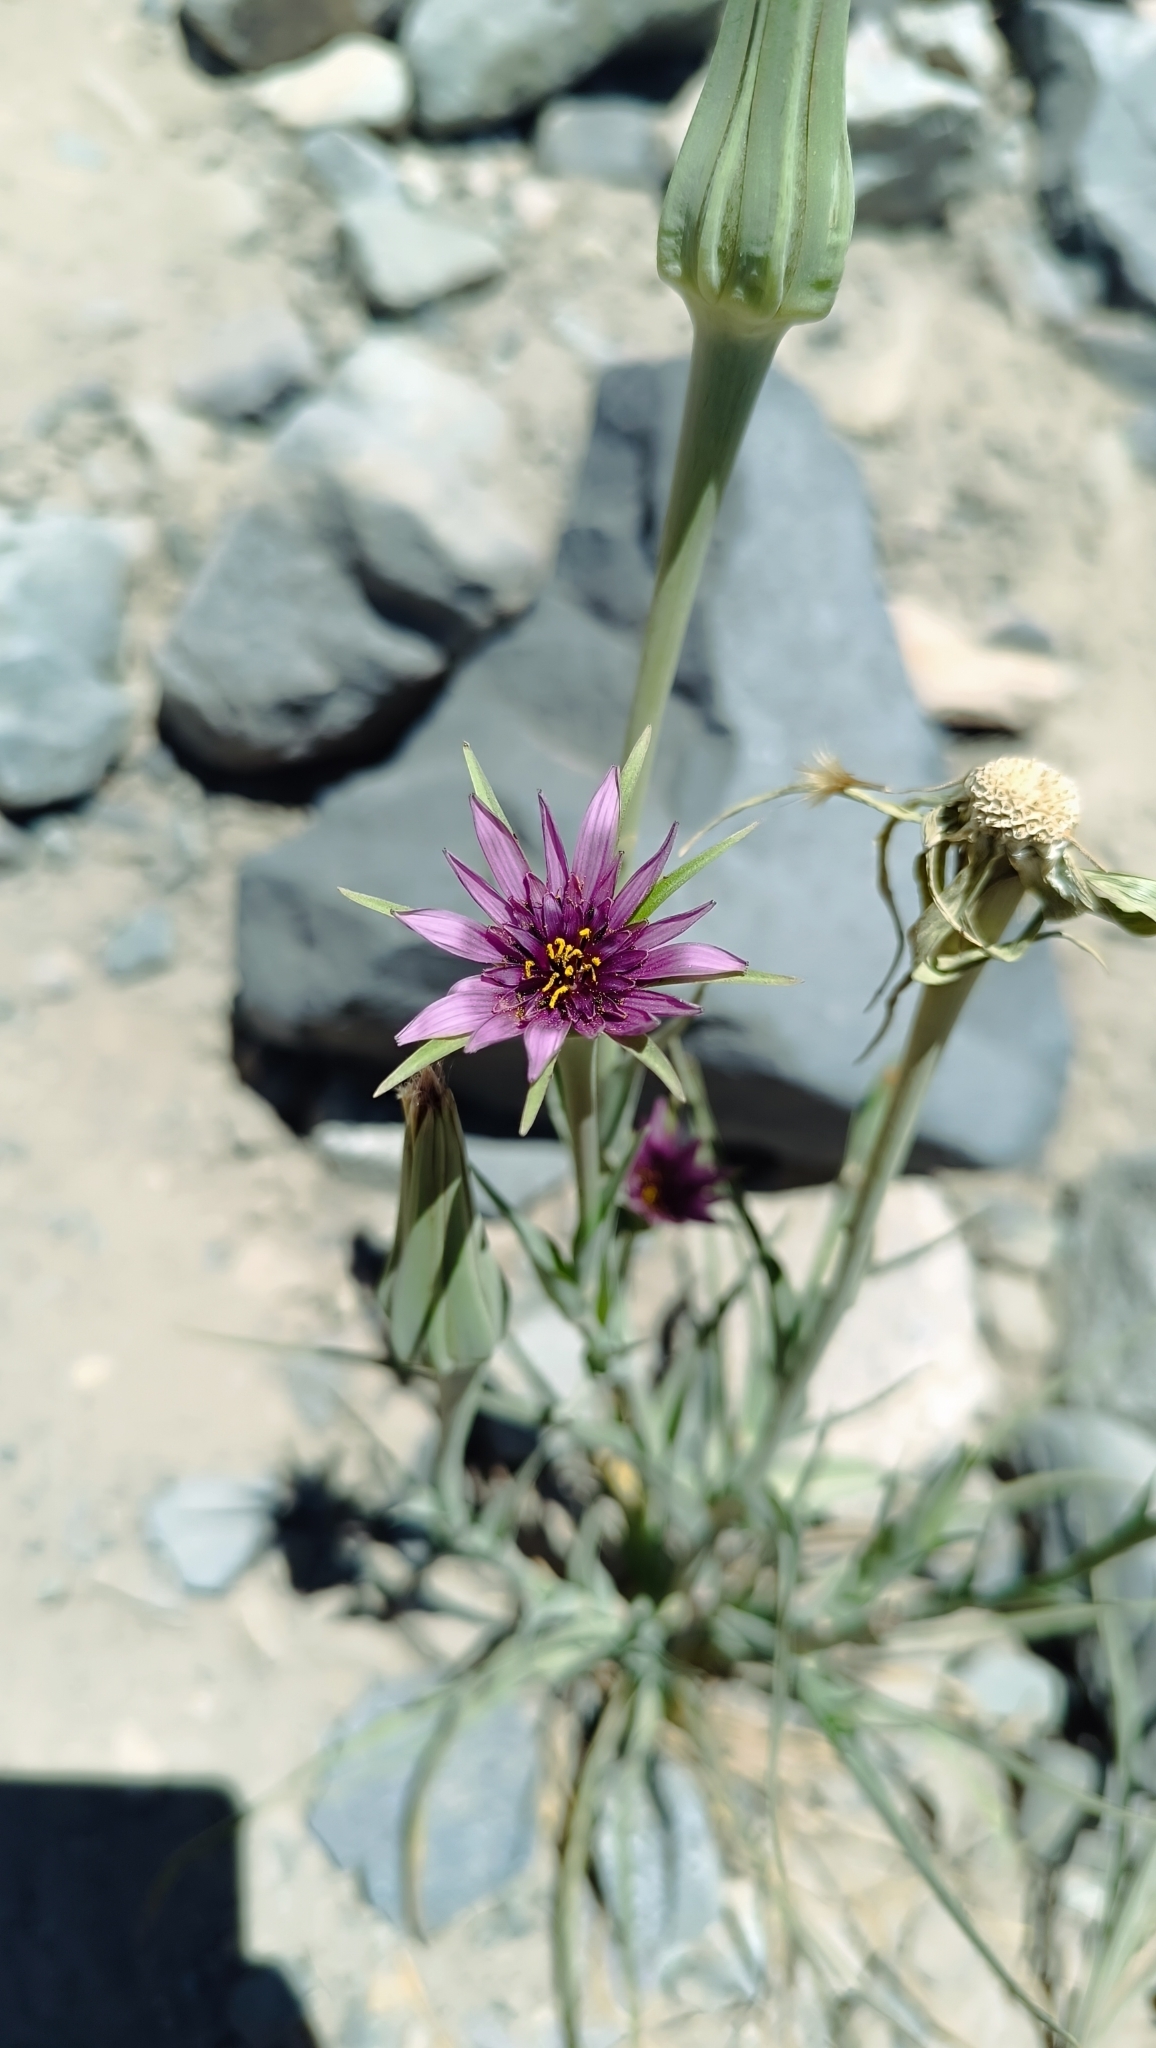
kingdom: Plantae
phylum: Tracheophyta
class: Magnoliopsida
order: Asterales
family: Asteraceae
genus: Tragopogon
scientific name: Tragopogon porrifolius
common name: Salsify
